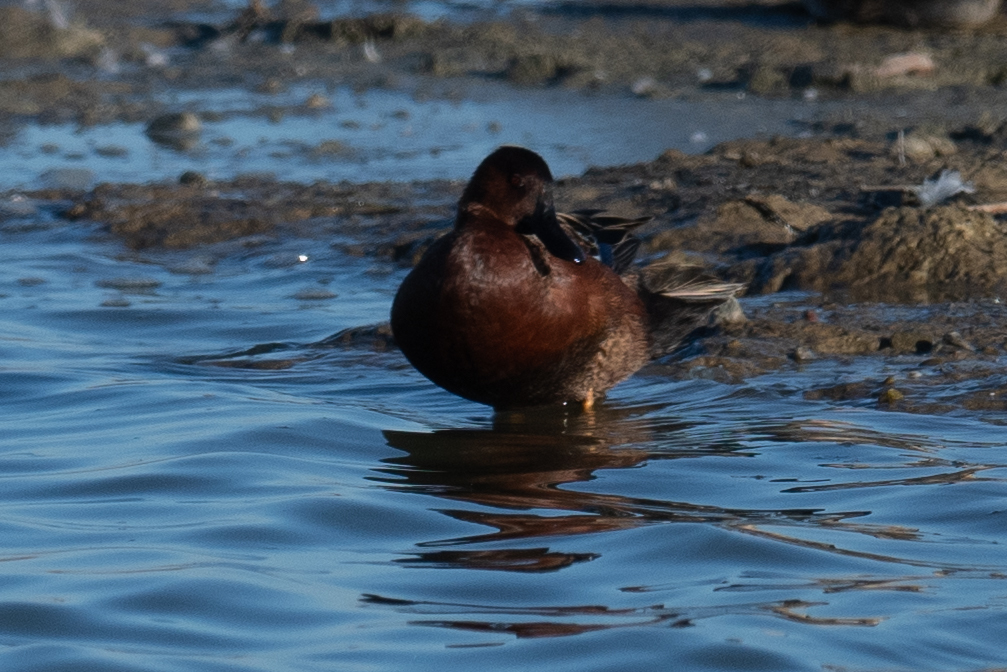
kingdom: Animalia
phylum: Chordata
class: Aves
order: Anseriformes
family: Anatidae
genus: Spatula
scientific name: Spatula cyanoptera
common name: Cinnamon teal
